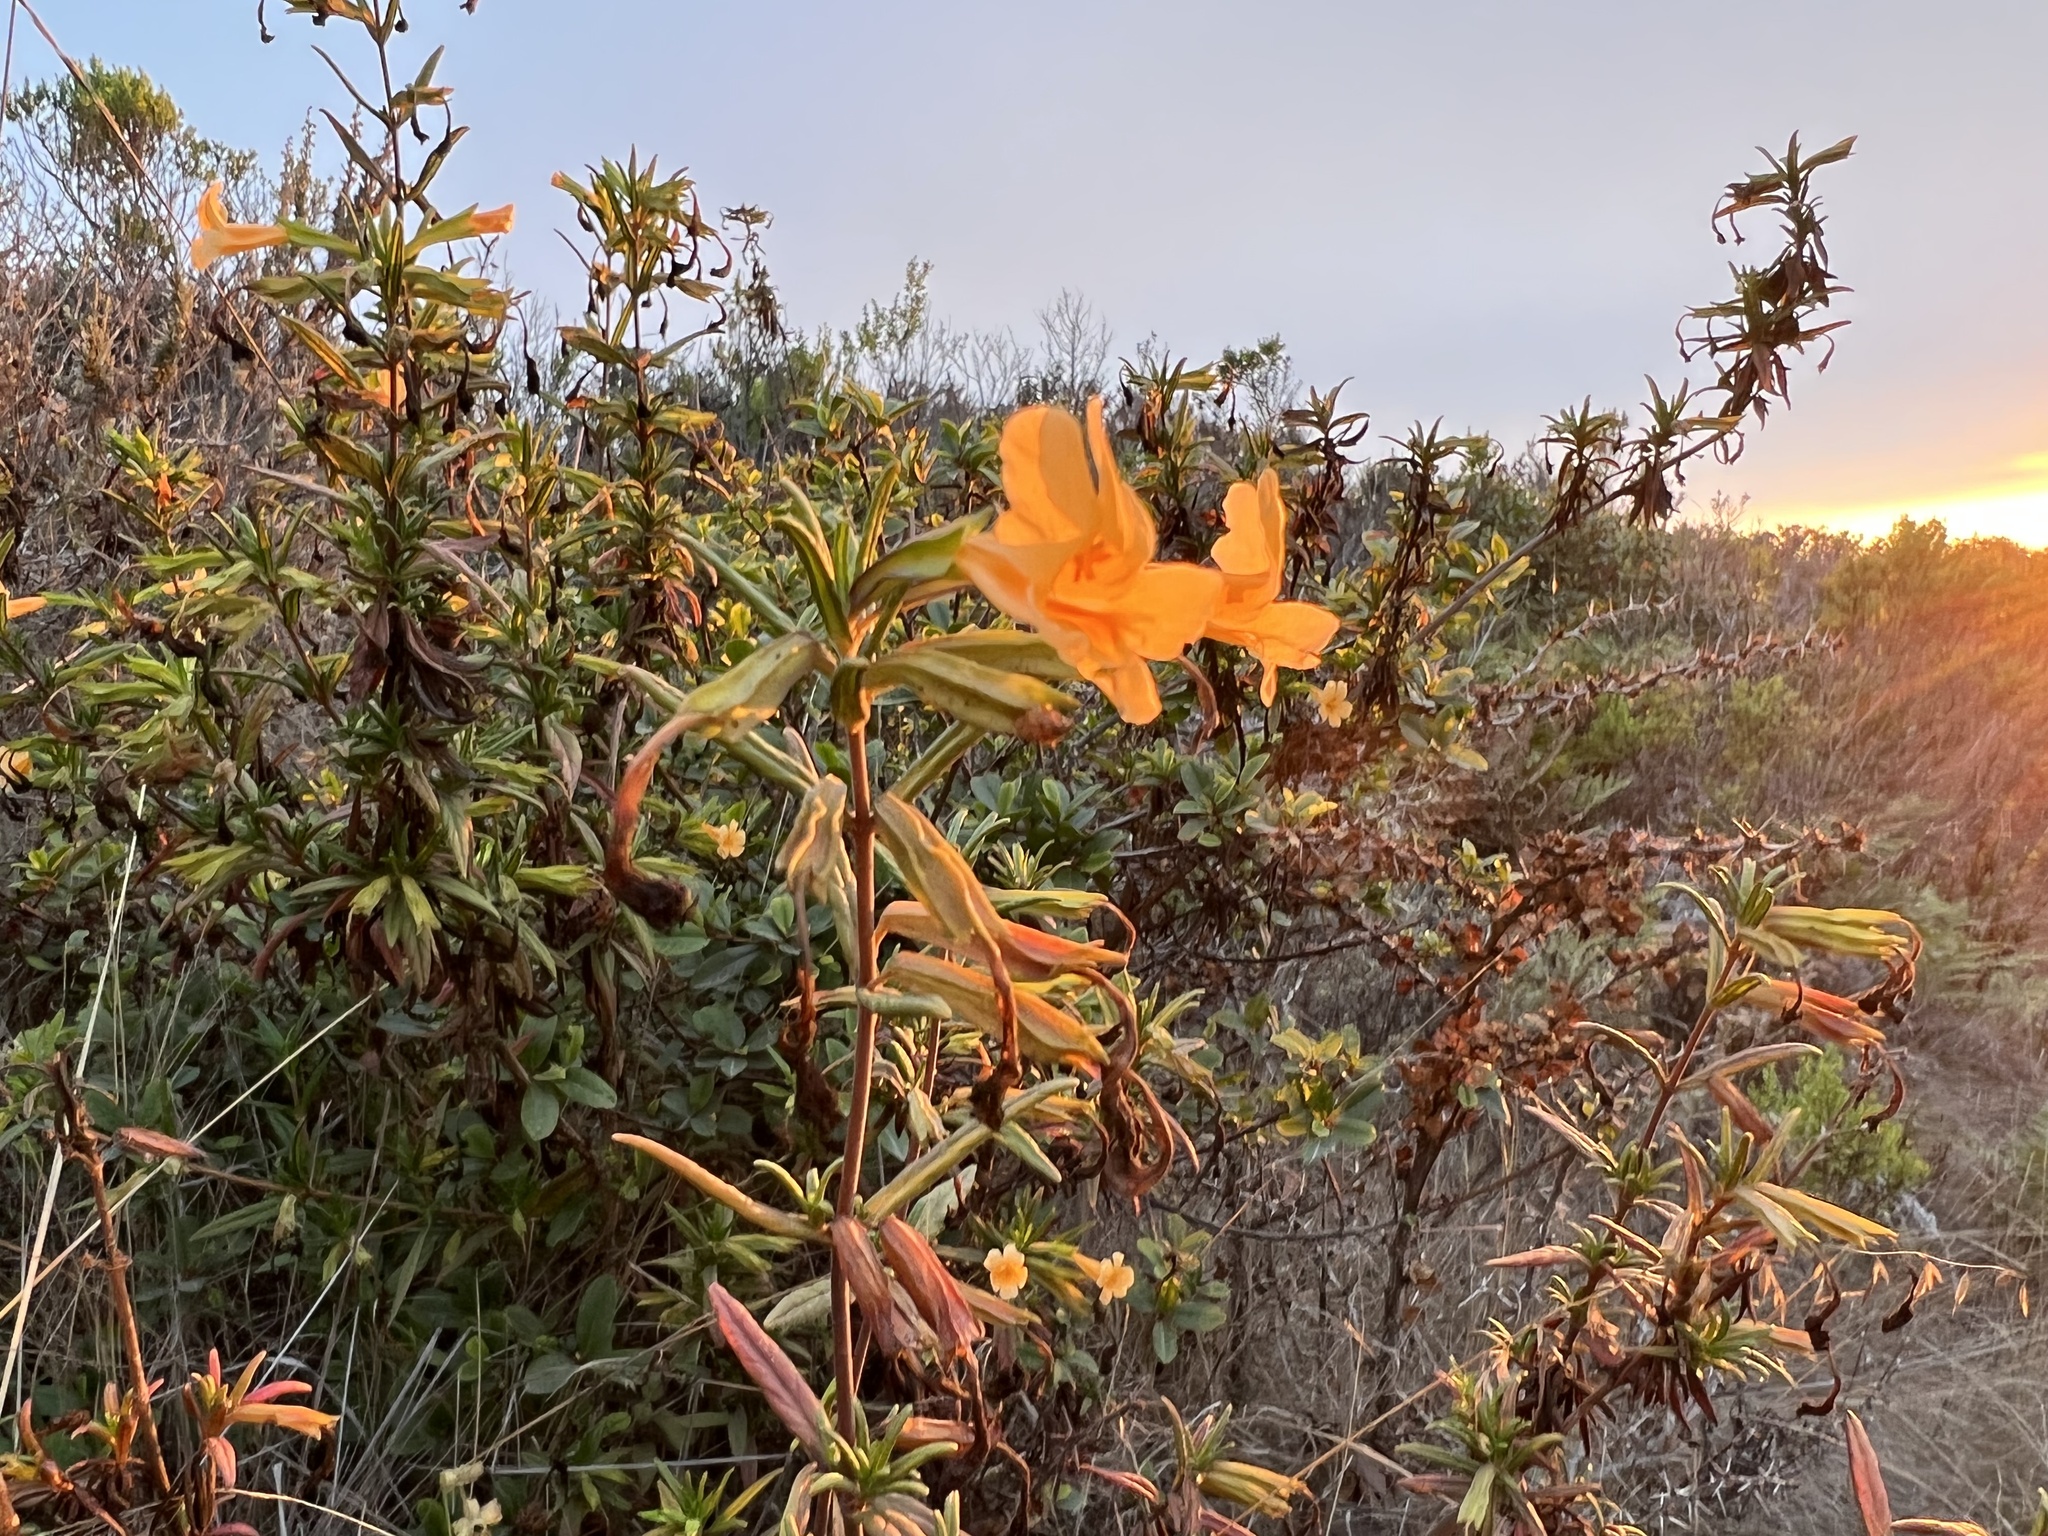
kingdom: Plantae
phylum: Tracheophyta
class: Magnoliopsida
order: Lamiales
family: Phrymaceae
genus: Diplacus
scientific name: Diplacus aurantiacus
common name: Bush monkey-flower
